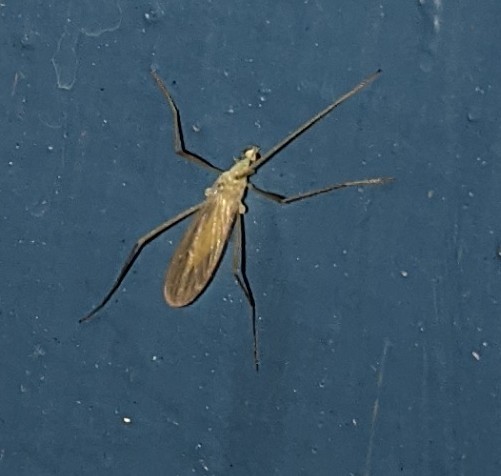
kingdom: Animalia
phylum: Arthropoda
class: Insecta
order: Diptera
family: Limoniidae
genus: Erioptera
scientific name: Erioptera
